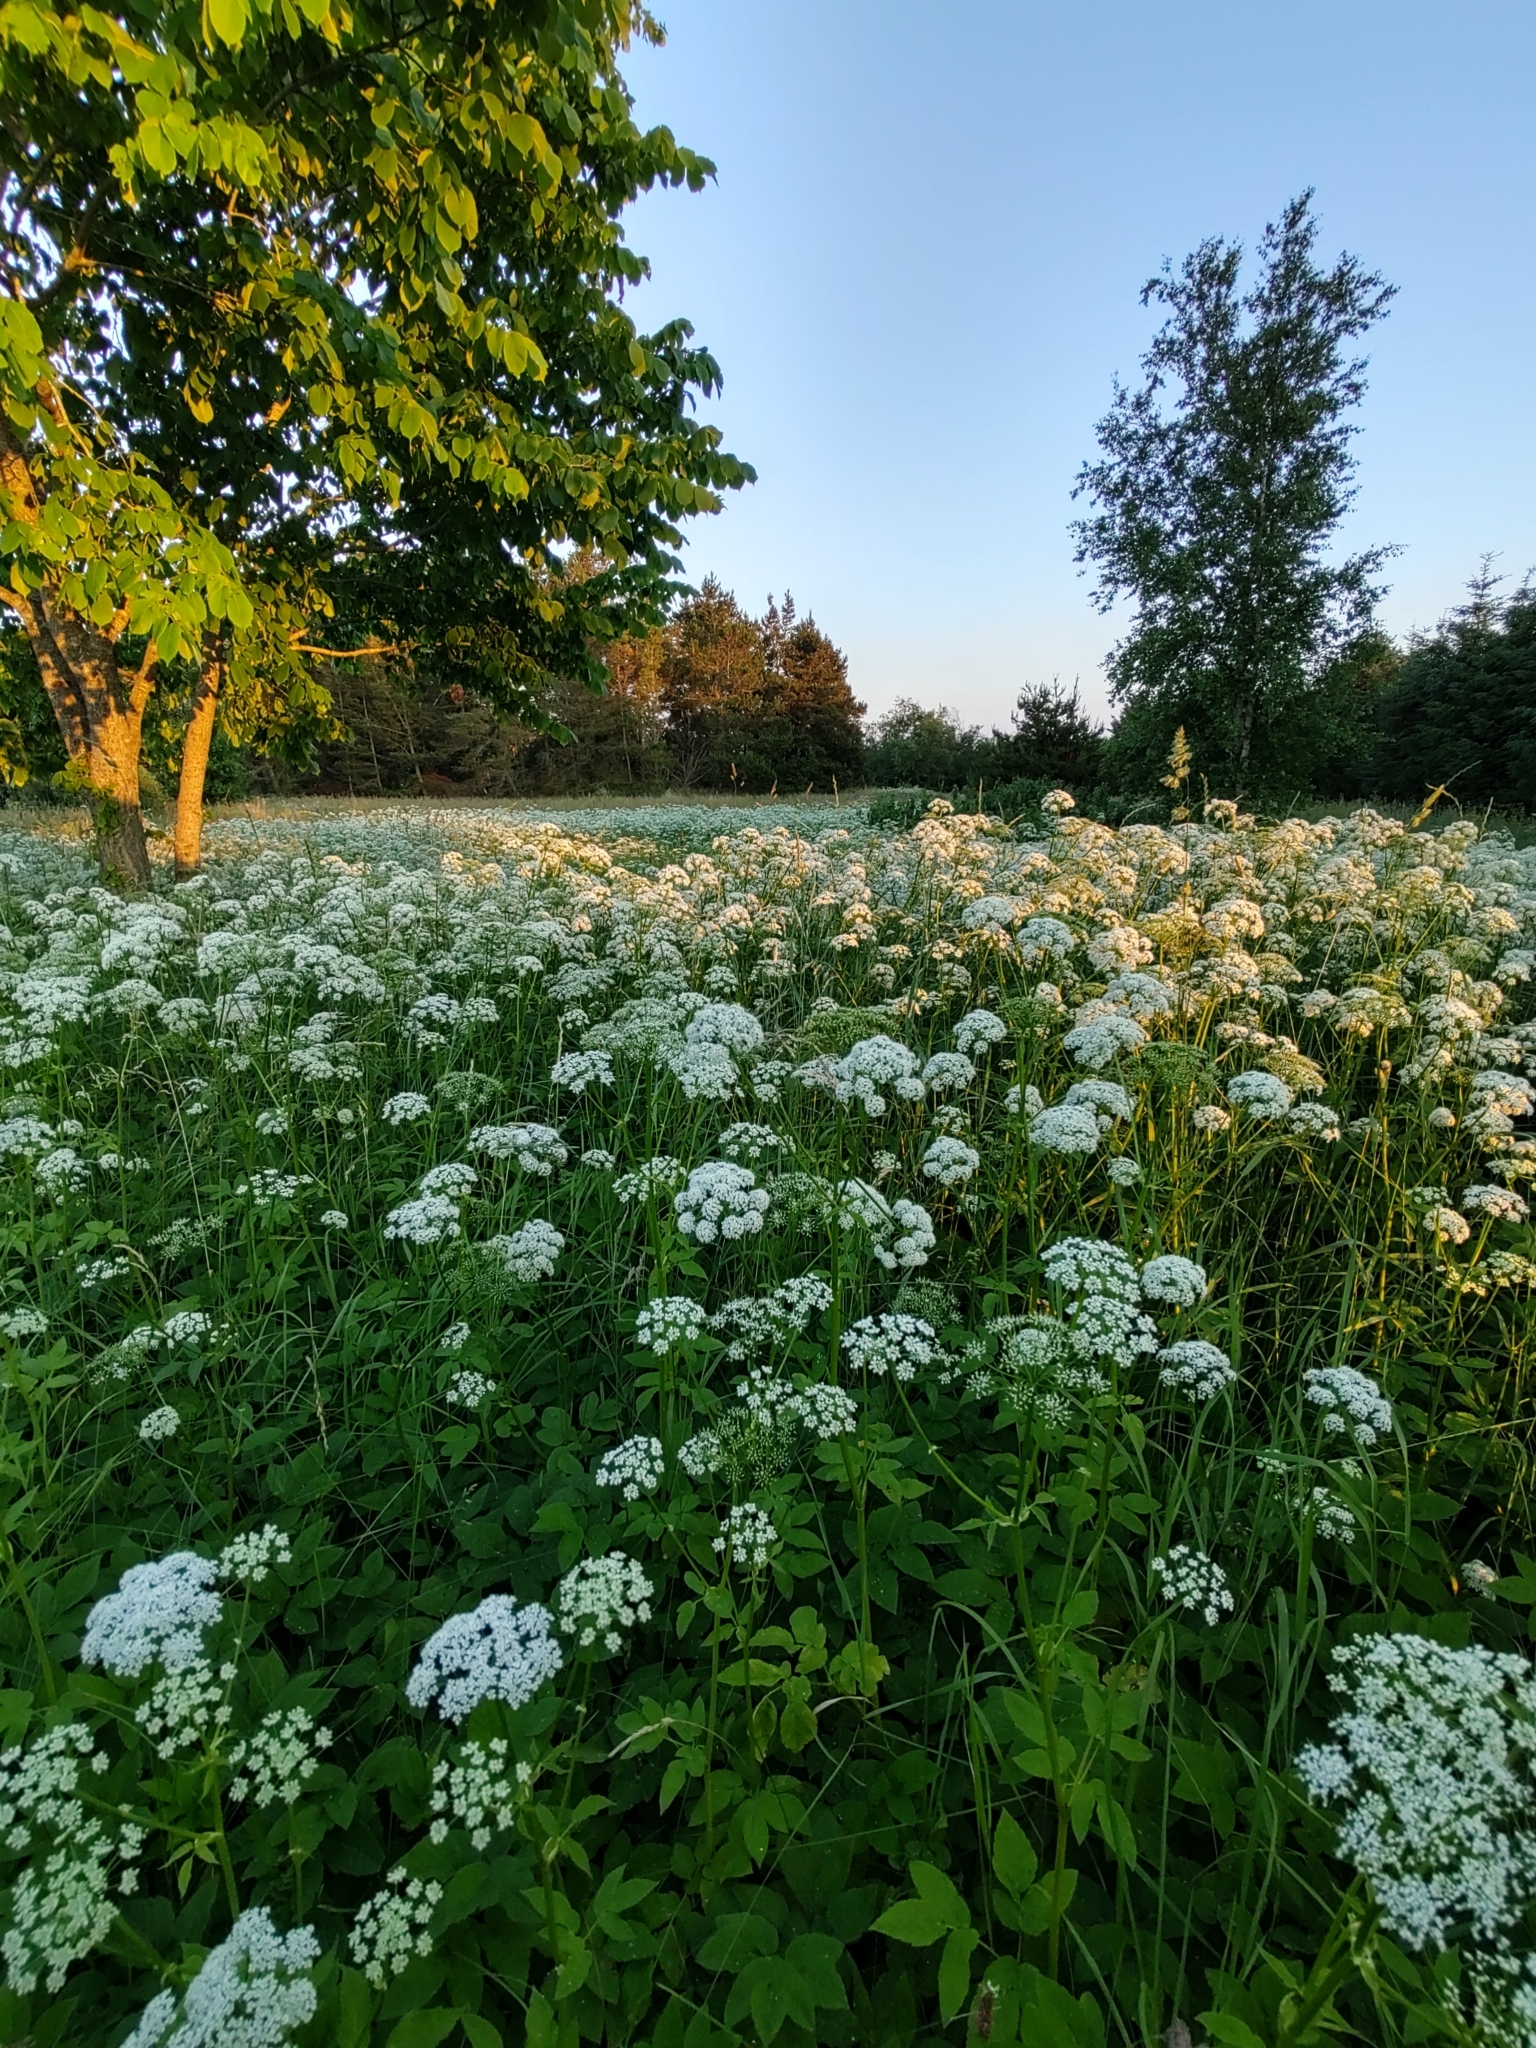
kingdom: Plantae
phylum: Tracheophyta
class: Magnoliopsida
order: Apiales
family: Apiaceae
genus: Aegopodium
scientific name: Aegopodium podagraria
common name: Ground-elder
